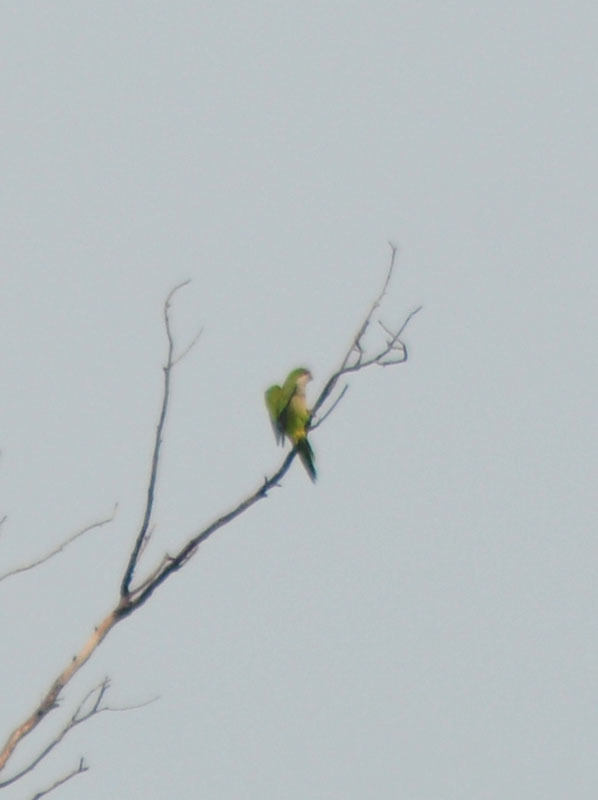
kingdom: Animalia
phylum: Chordata
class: Aves
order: Psittaciformes
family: Psittacidae
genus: Myiopsitta
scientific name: Myiopsitta monachus
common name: Monk parakeet
